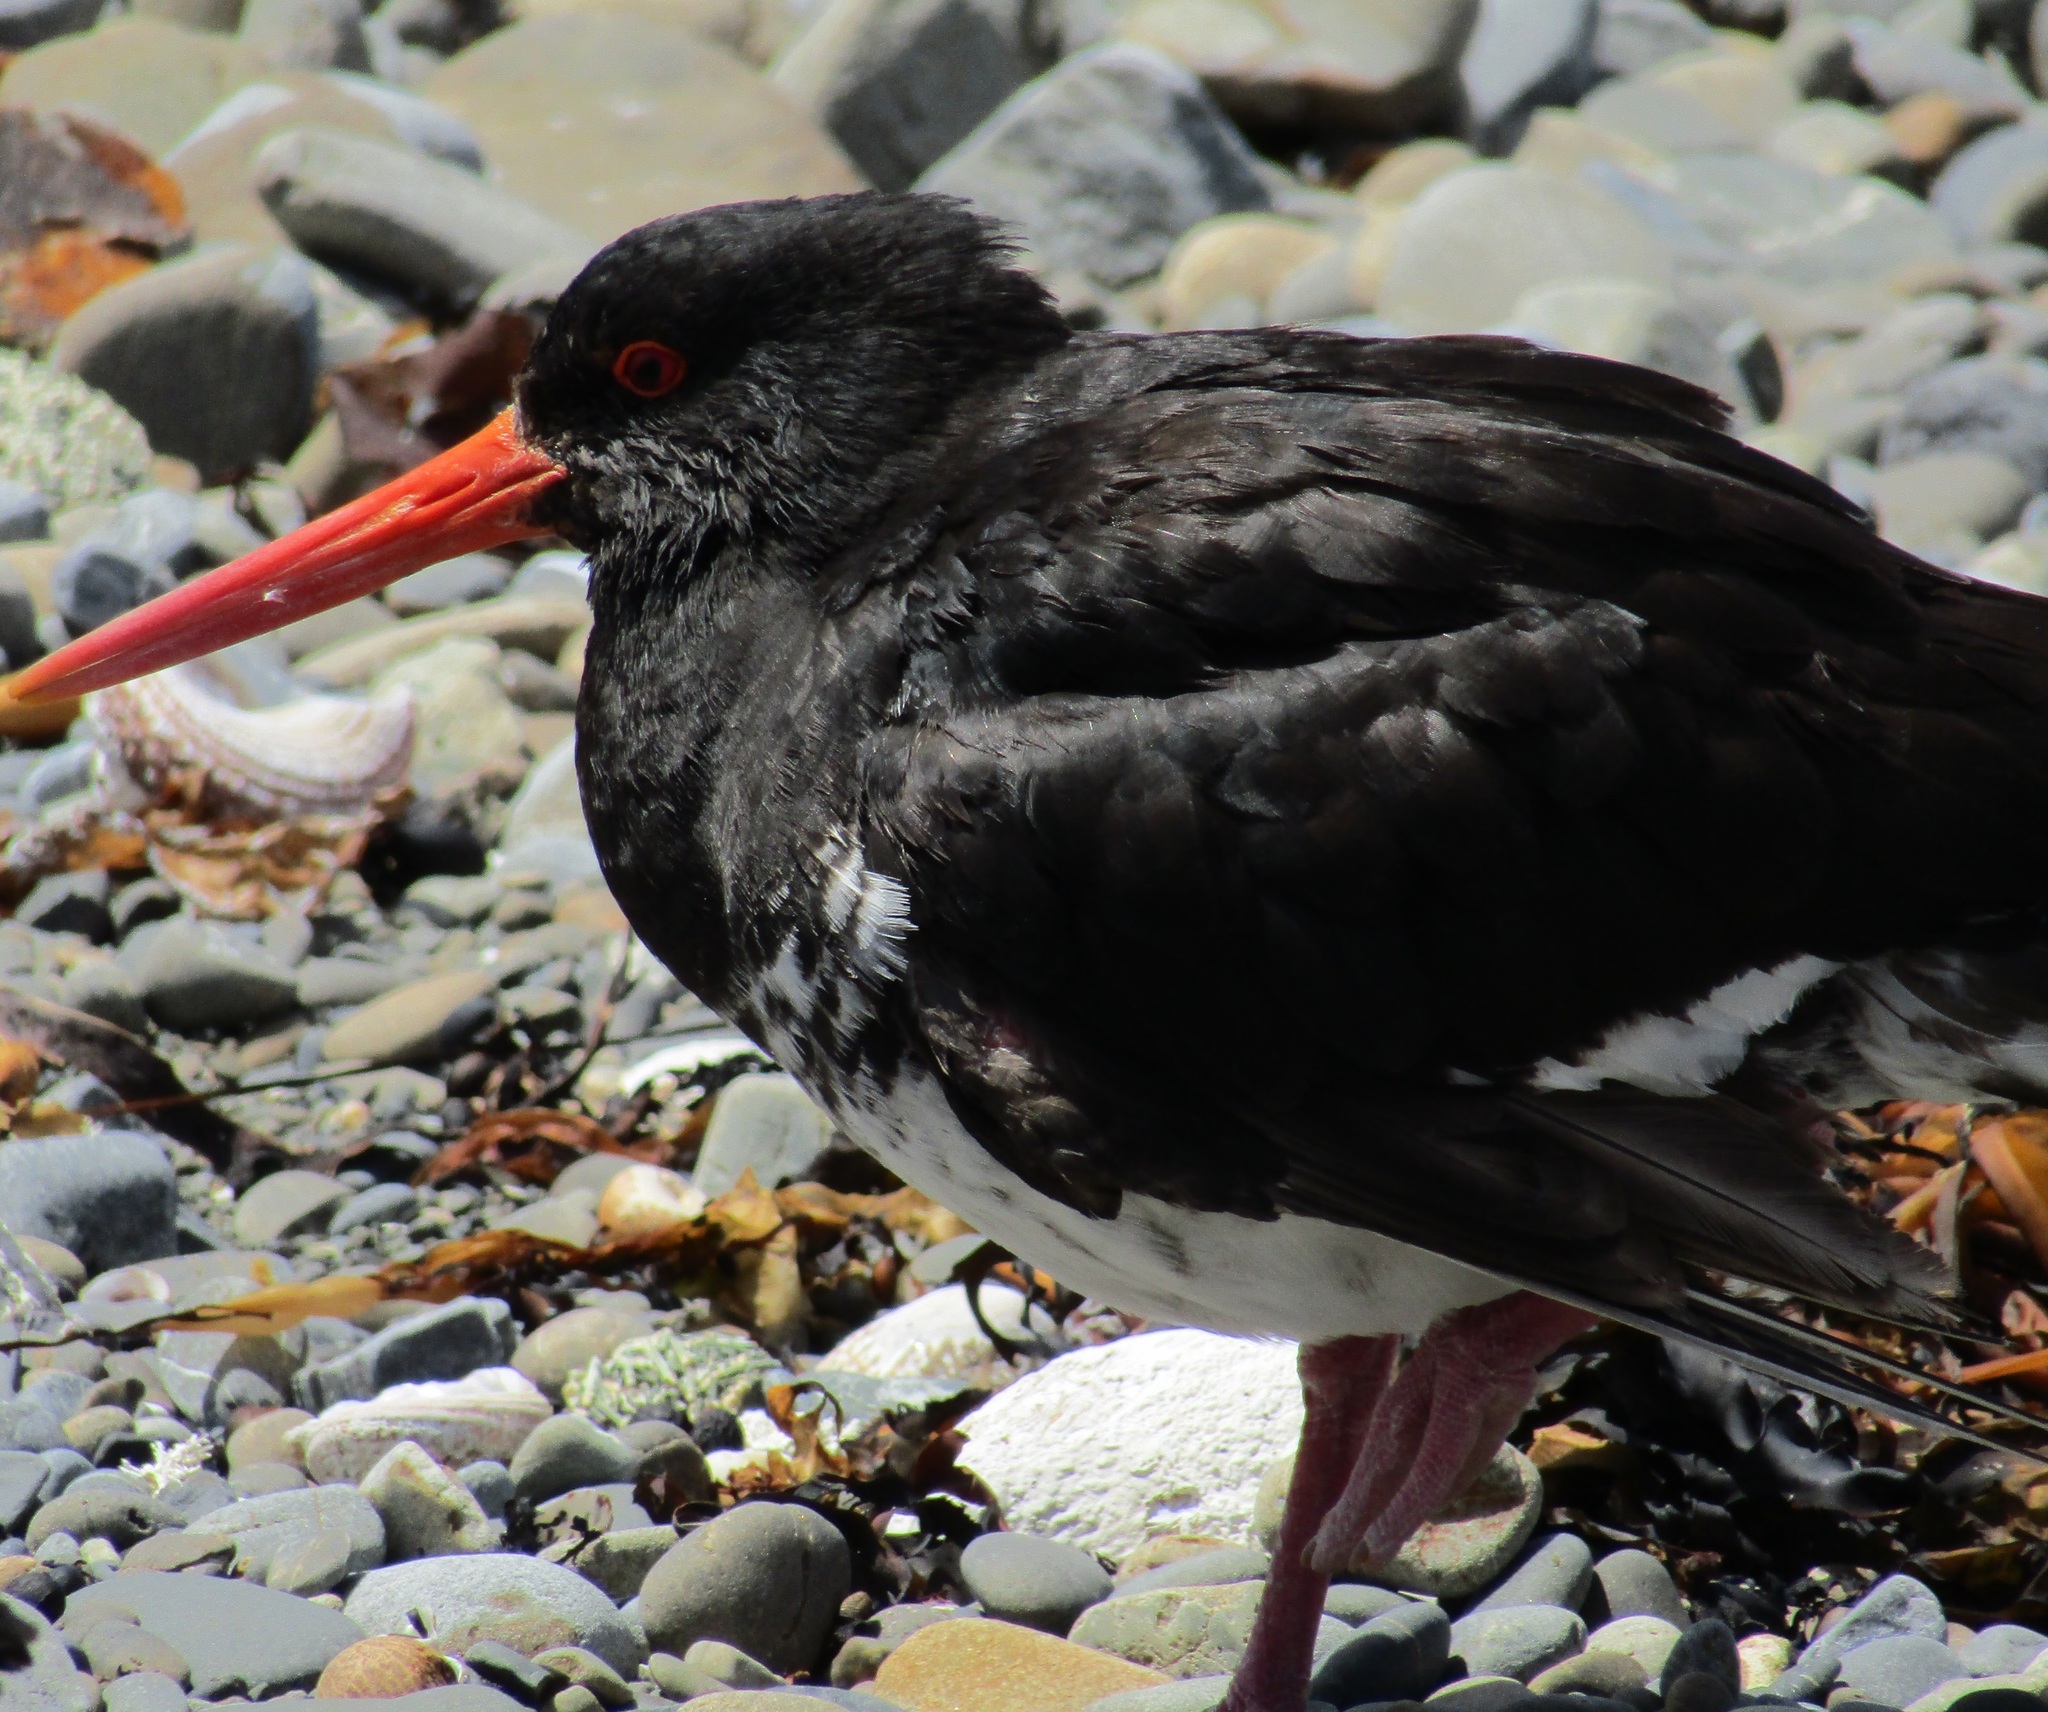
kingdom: Animalia
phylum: Chordata
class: Aves
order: Charadriiformes
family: Haematopodidae
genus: Haematopus
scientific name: Haematopus unicolor
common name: Variable oystercatcher
